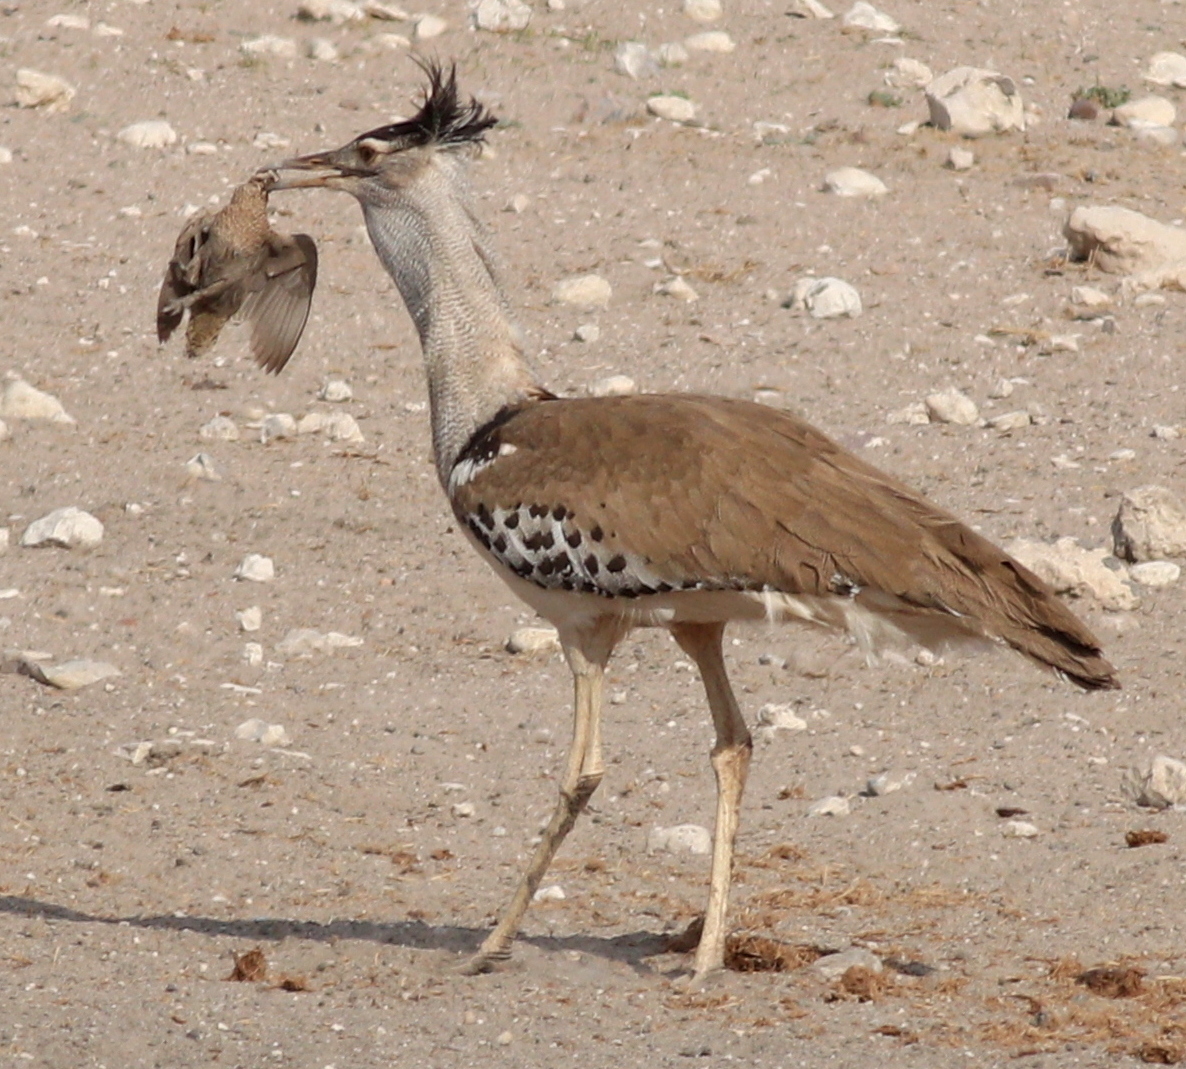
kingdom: Animalia
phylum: Chordata
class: Aves
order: Otidiformes
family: Otididae
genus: Ardeotis
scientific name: Ardeotis kori
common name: Kori bustard
